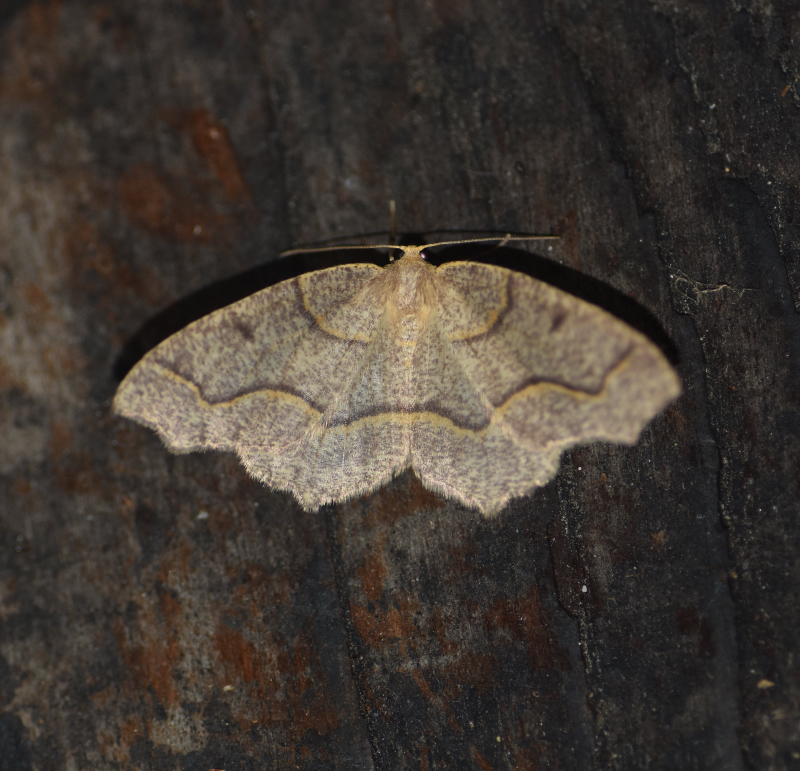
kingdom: Animalia
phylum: Arthropoda
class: Insecta
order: Lepidoptera
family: Geometridae
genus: Lambdina
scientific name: Lambdina fiscellaria
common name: Hemlock looper
